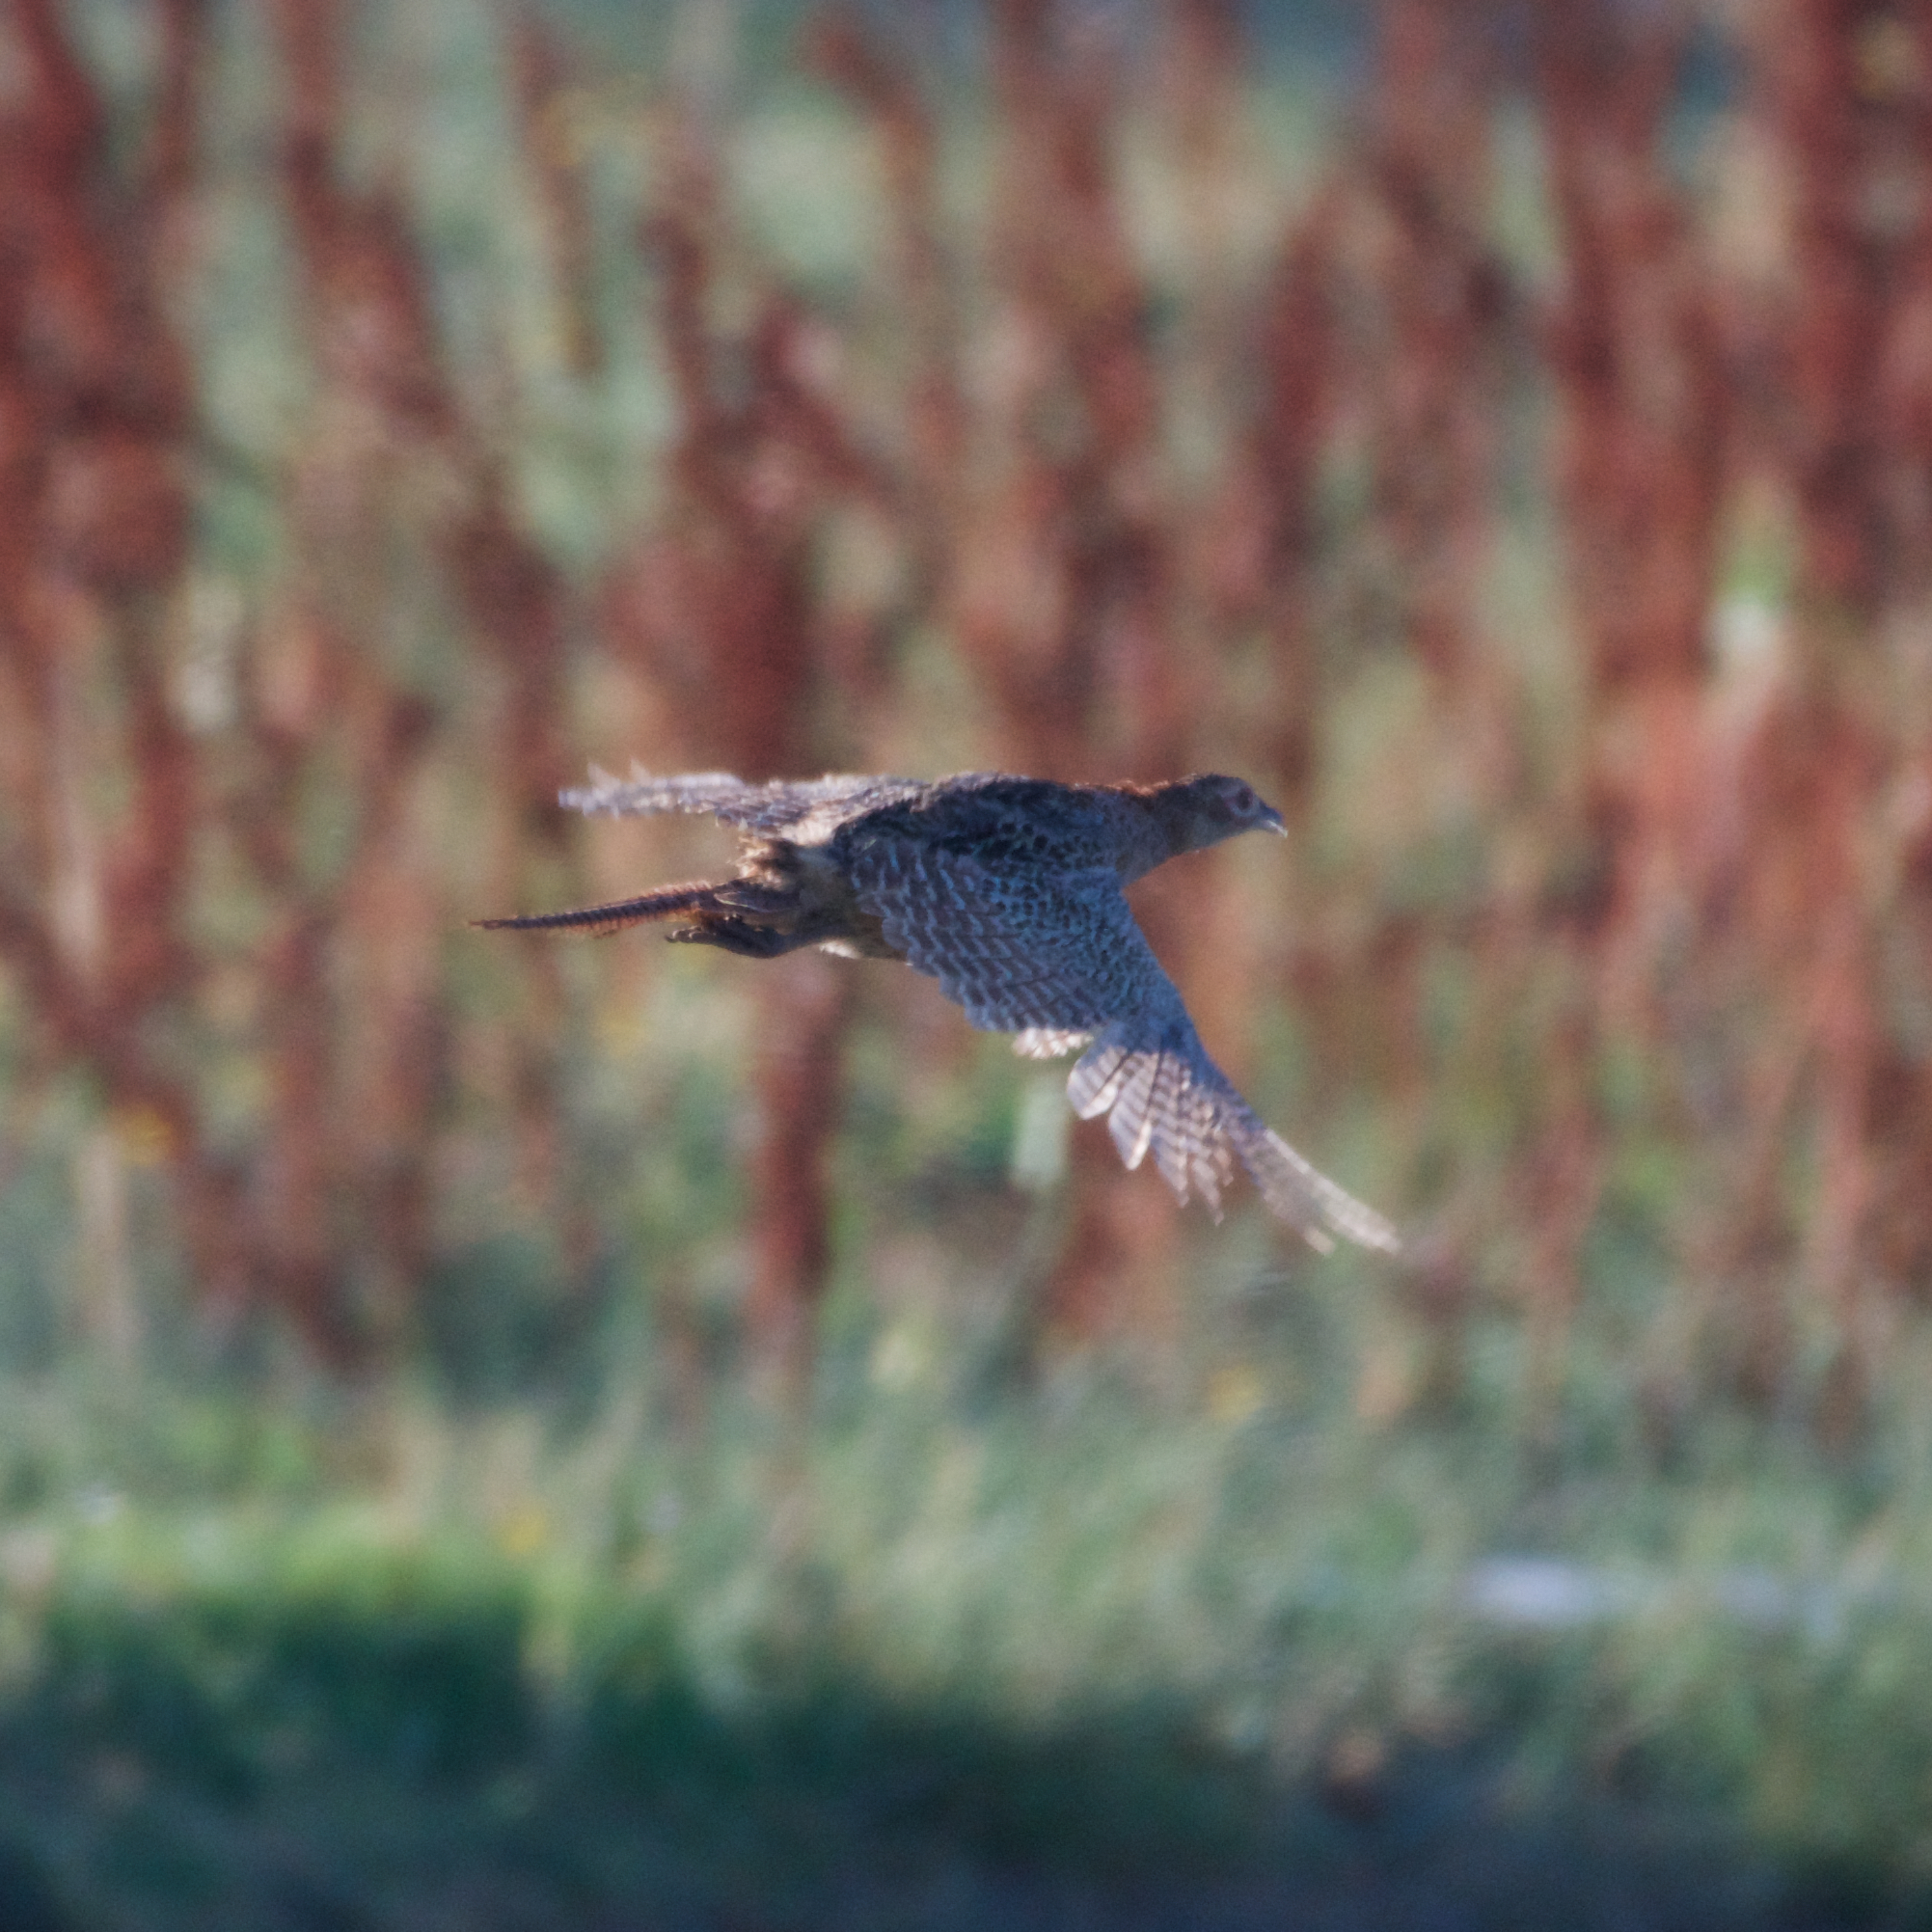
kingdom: Animalia
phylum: Chordata
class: Aves
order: Galliformes
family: Phasianidae
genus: Phasianus
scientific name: Phasianus colchicus
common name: Common pheasant
